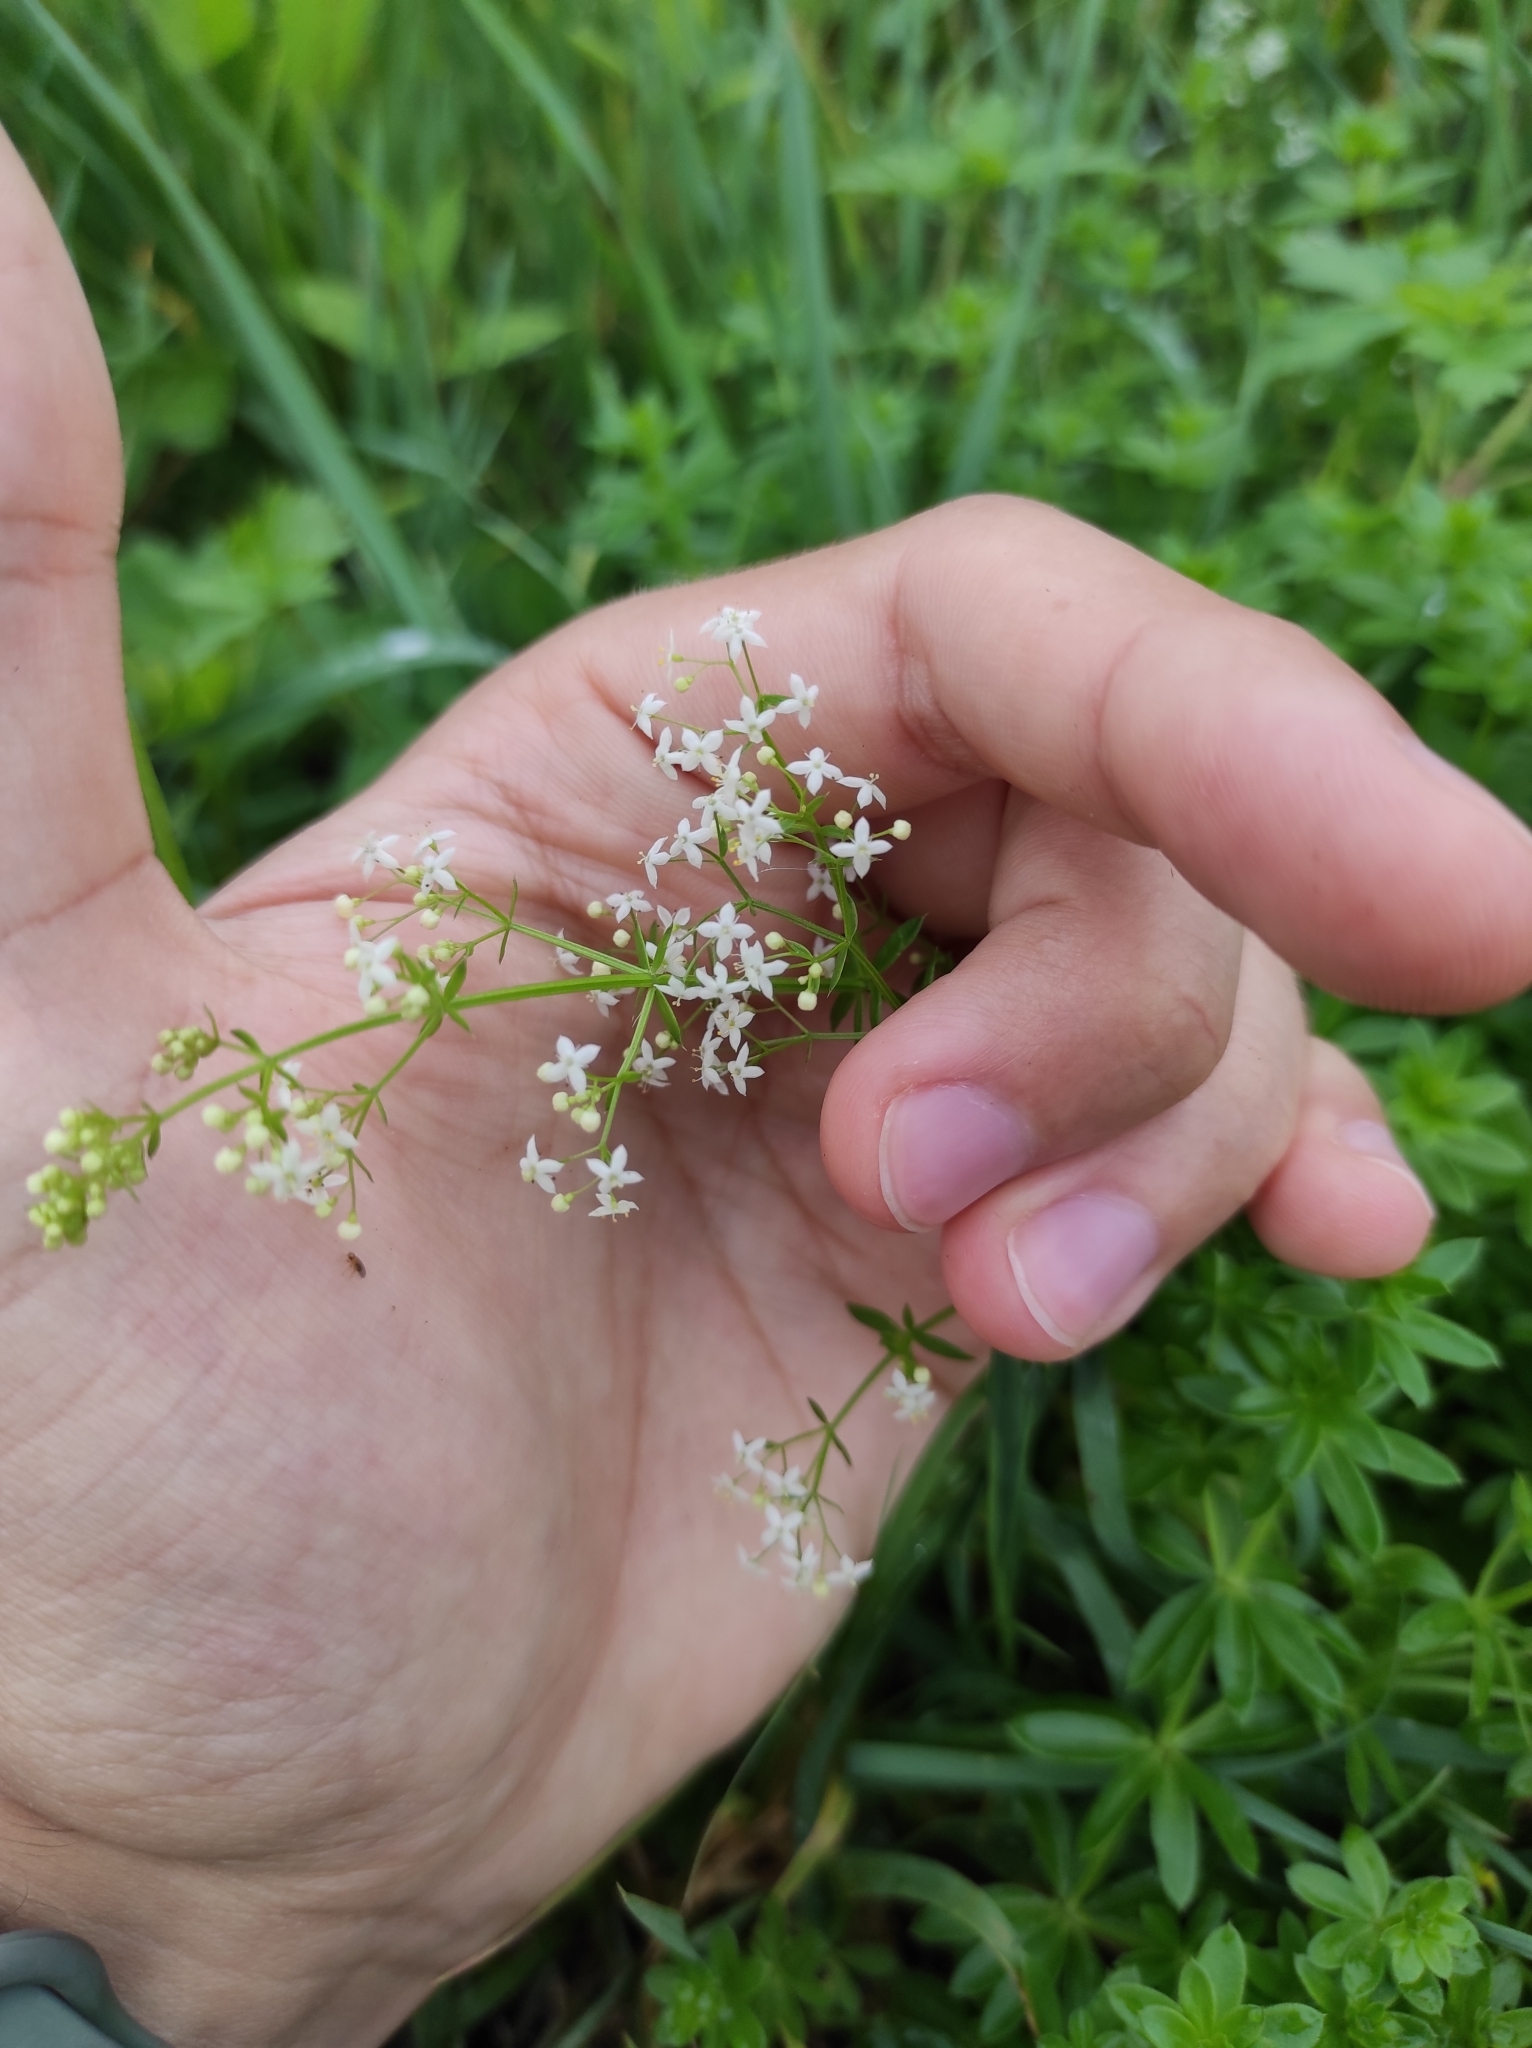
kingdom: Plantae
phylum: Tracheophyta
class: Magnoliopsida
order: Gentianales
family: Rubiaceae
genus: Galium
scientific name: Galium mollugo
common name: Hedge bedstraw
